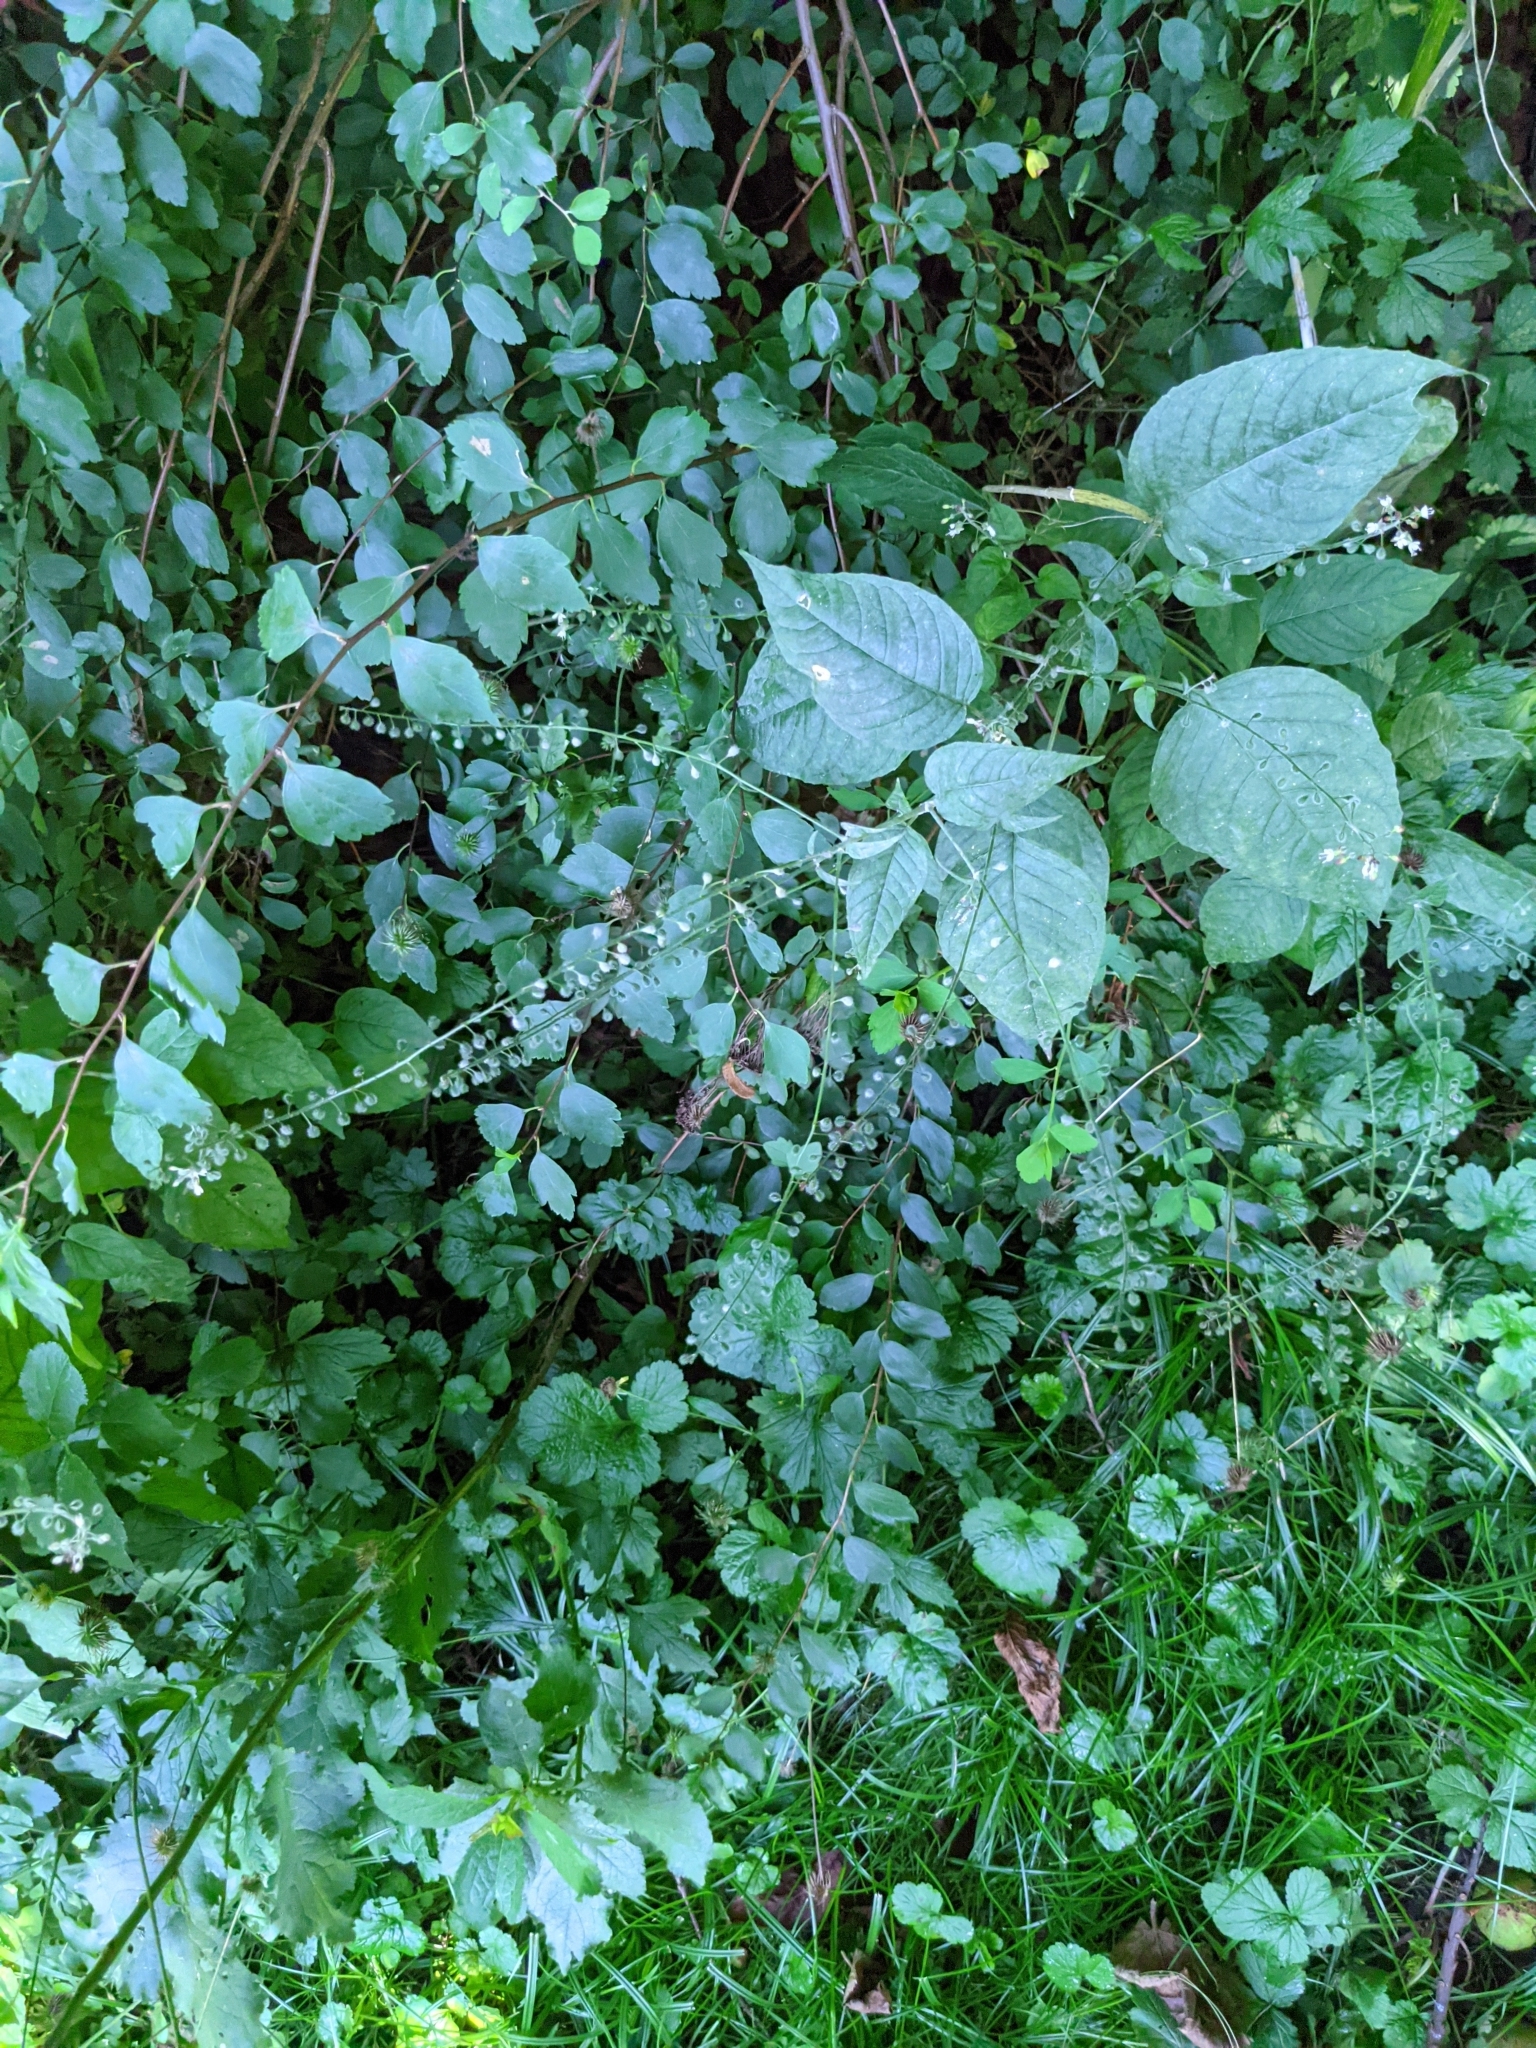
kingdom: Plantae
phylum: Tracheophyta
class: Magnoliopsida
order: Myrtales
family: Onagraceae
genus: Circaea
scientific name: Circaea lutetiana
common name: Enchanter's-nightshade
